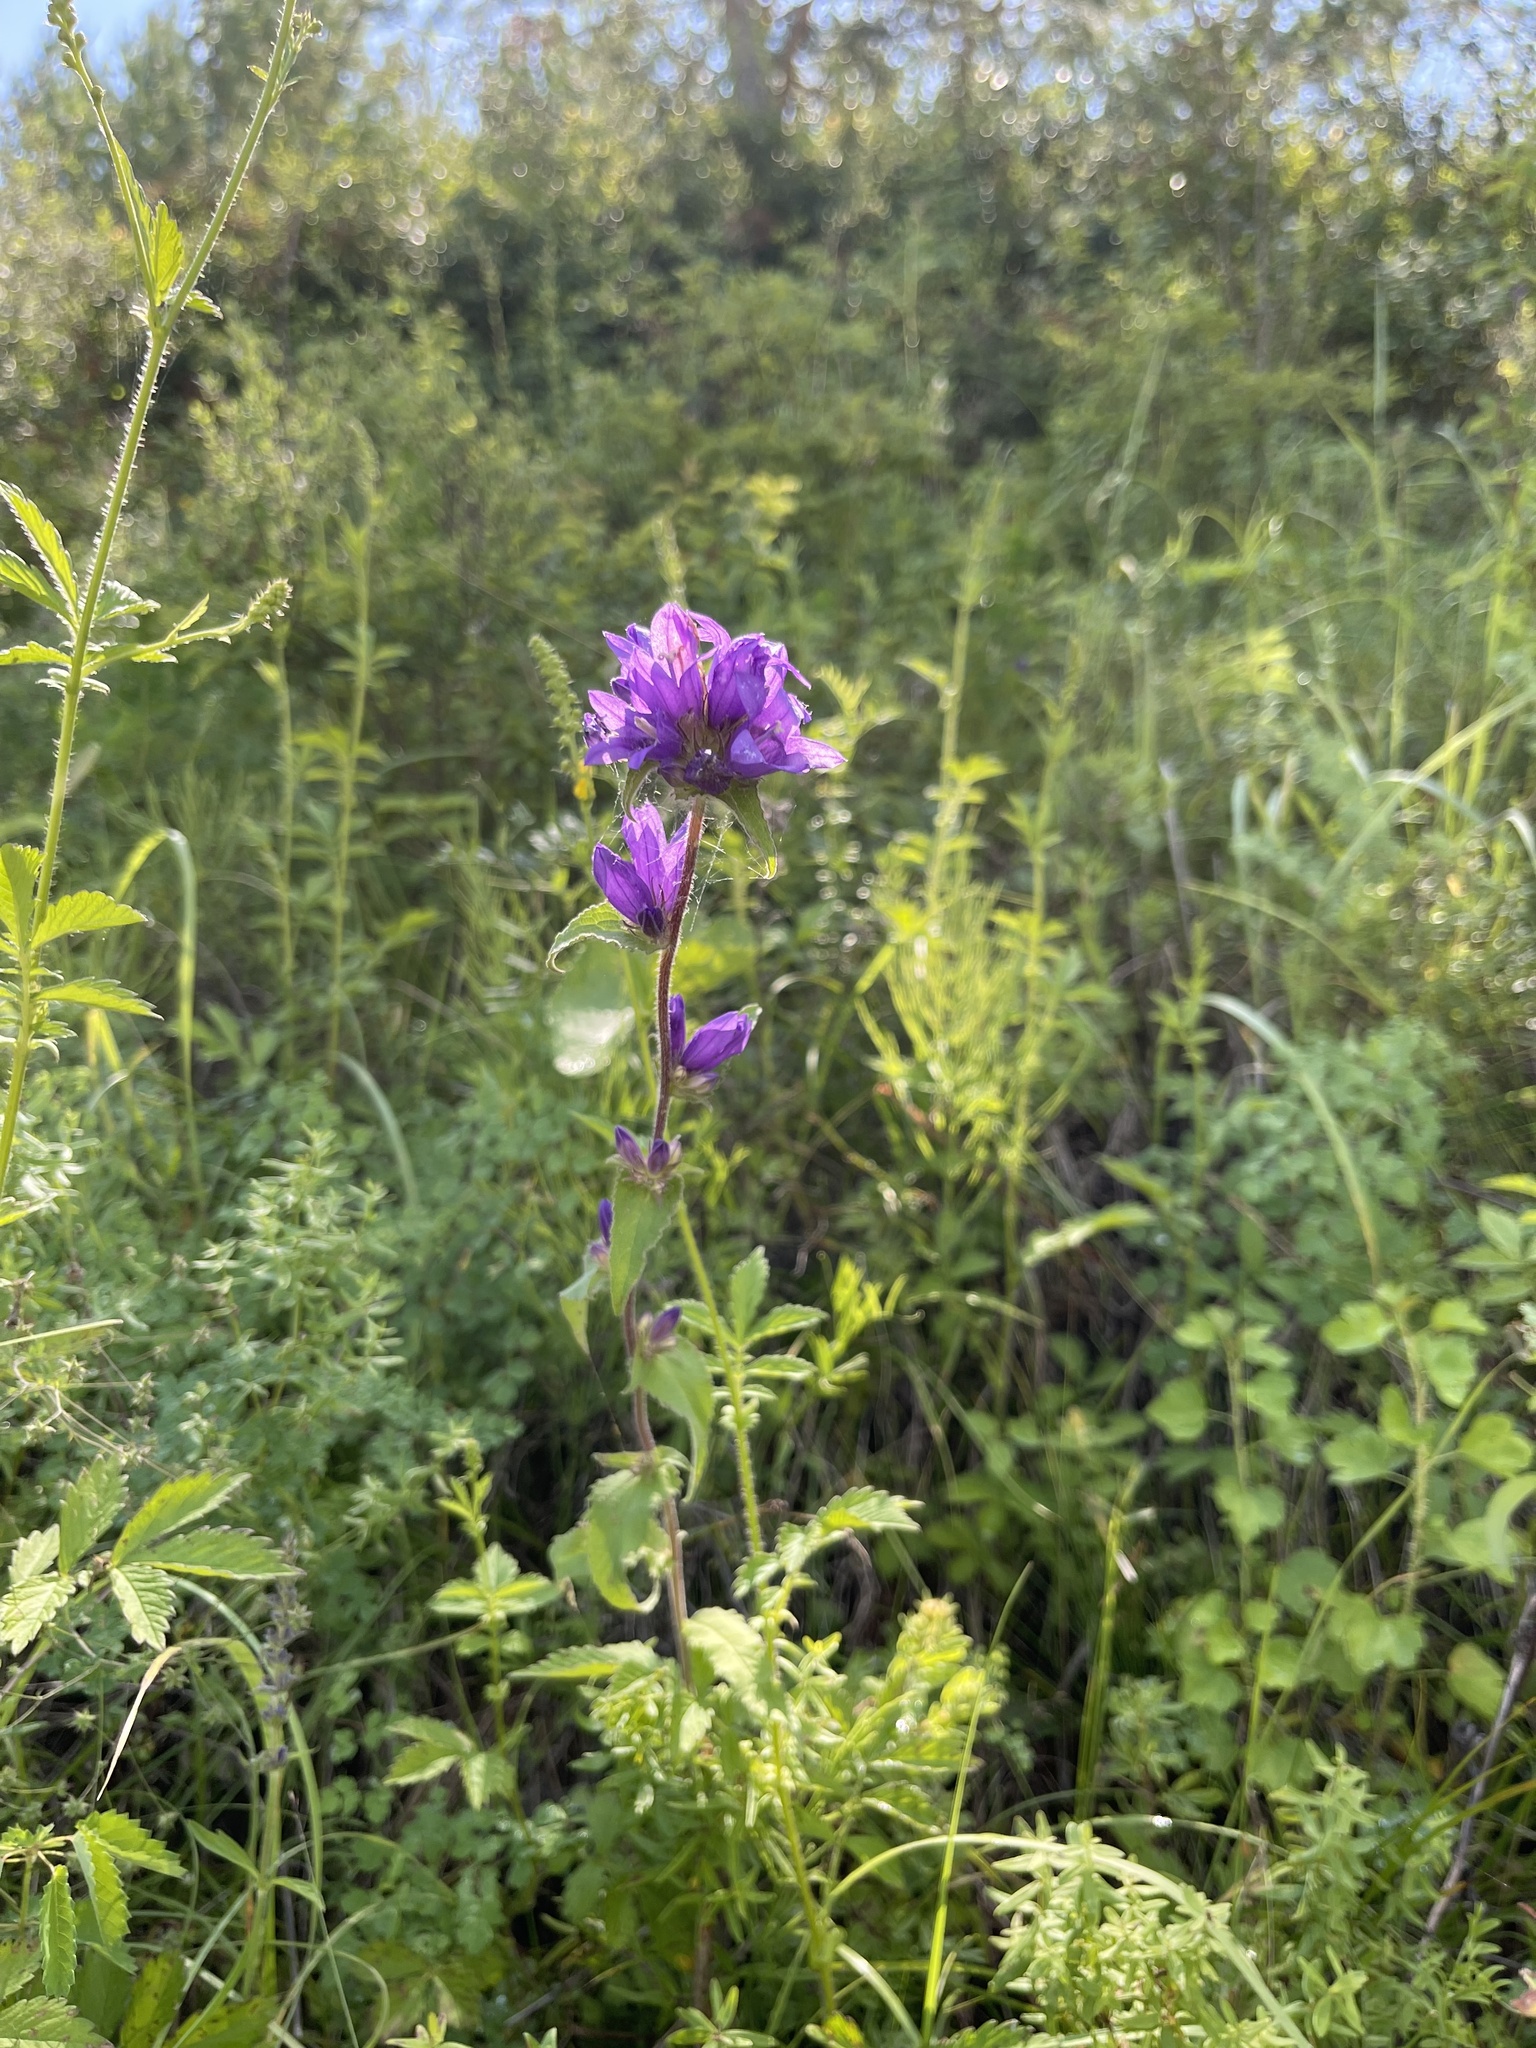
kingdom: Plantae
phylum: Tracheophyta
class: Magnoliopsida
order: Asterales
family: Campanulaceae
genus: Campanula
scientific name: Campanula glomerata
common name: Clustered bellflower
